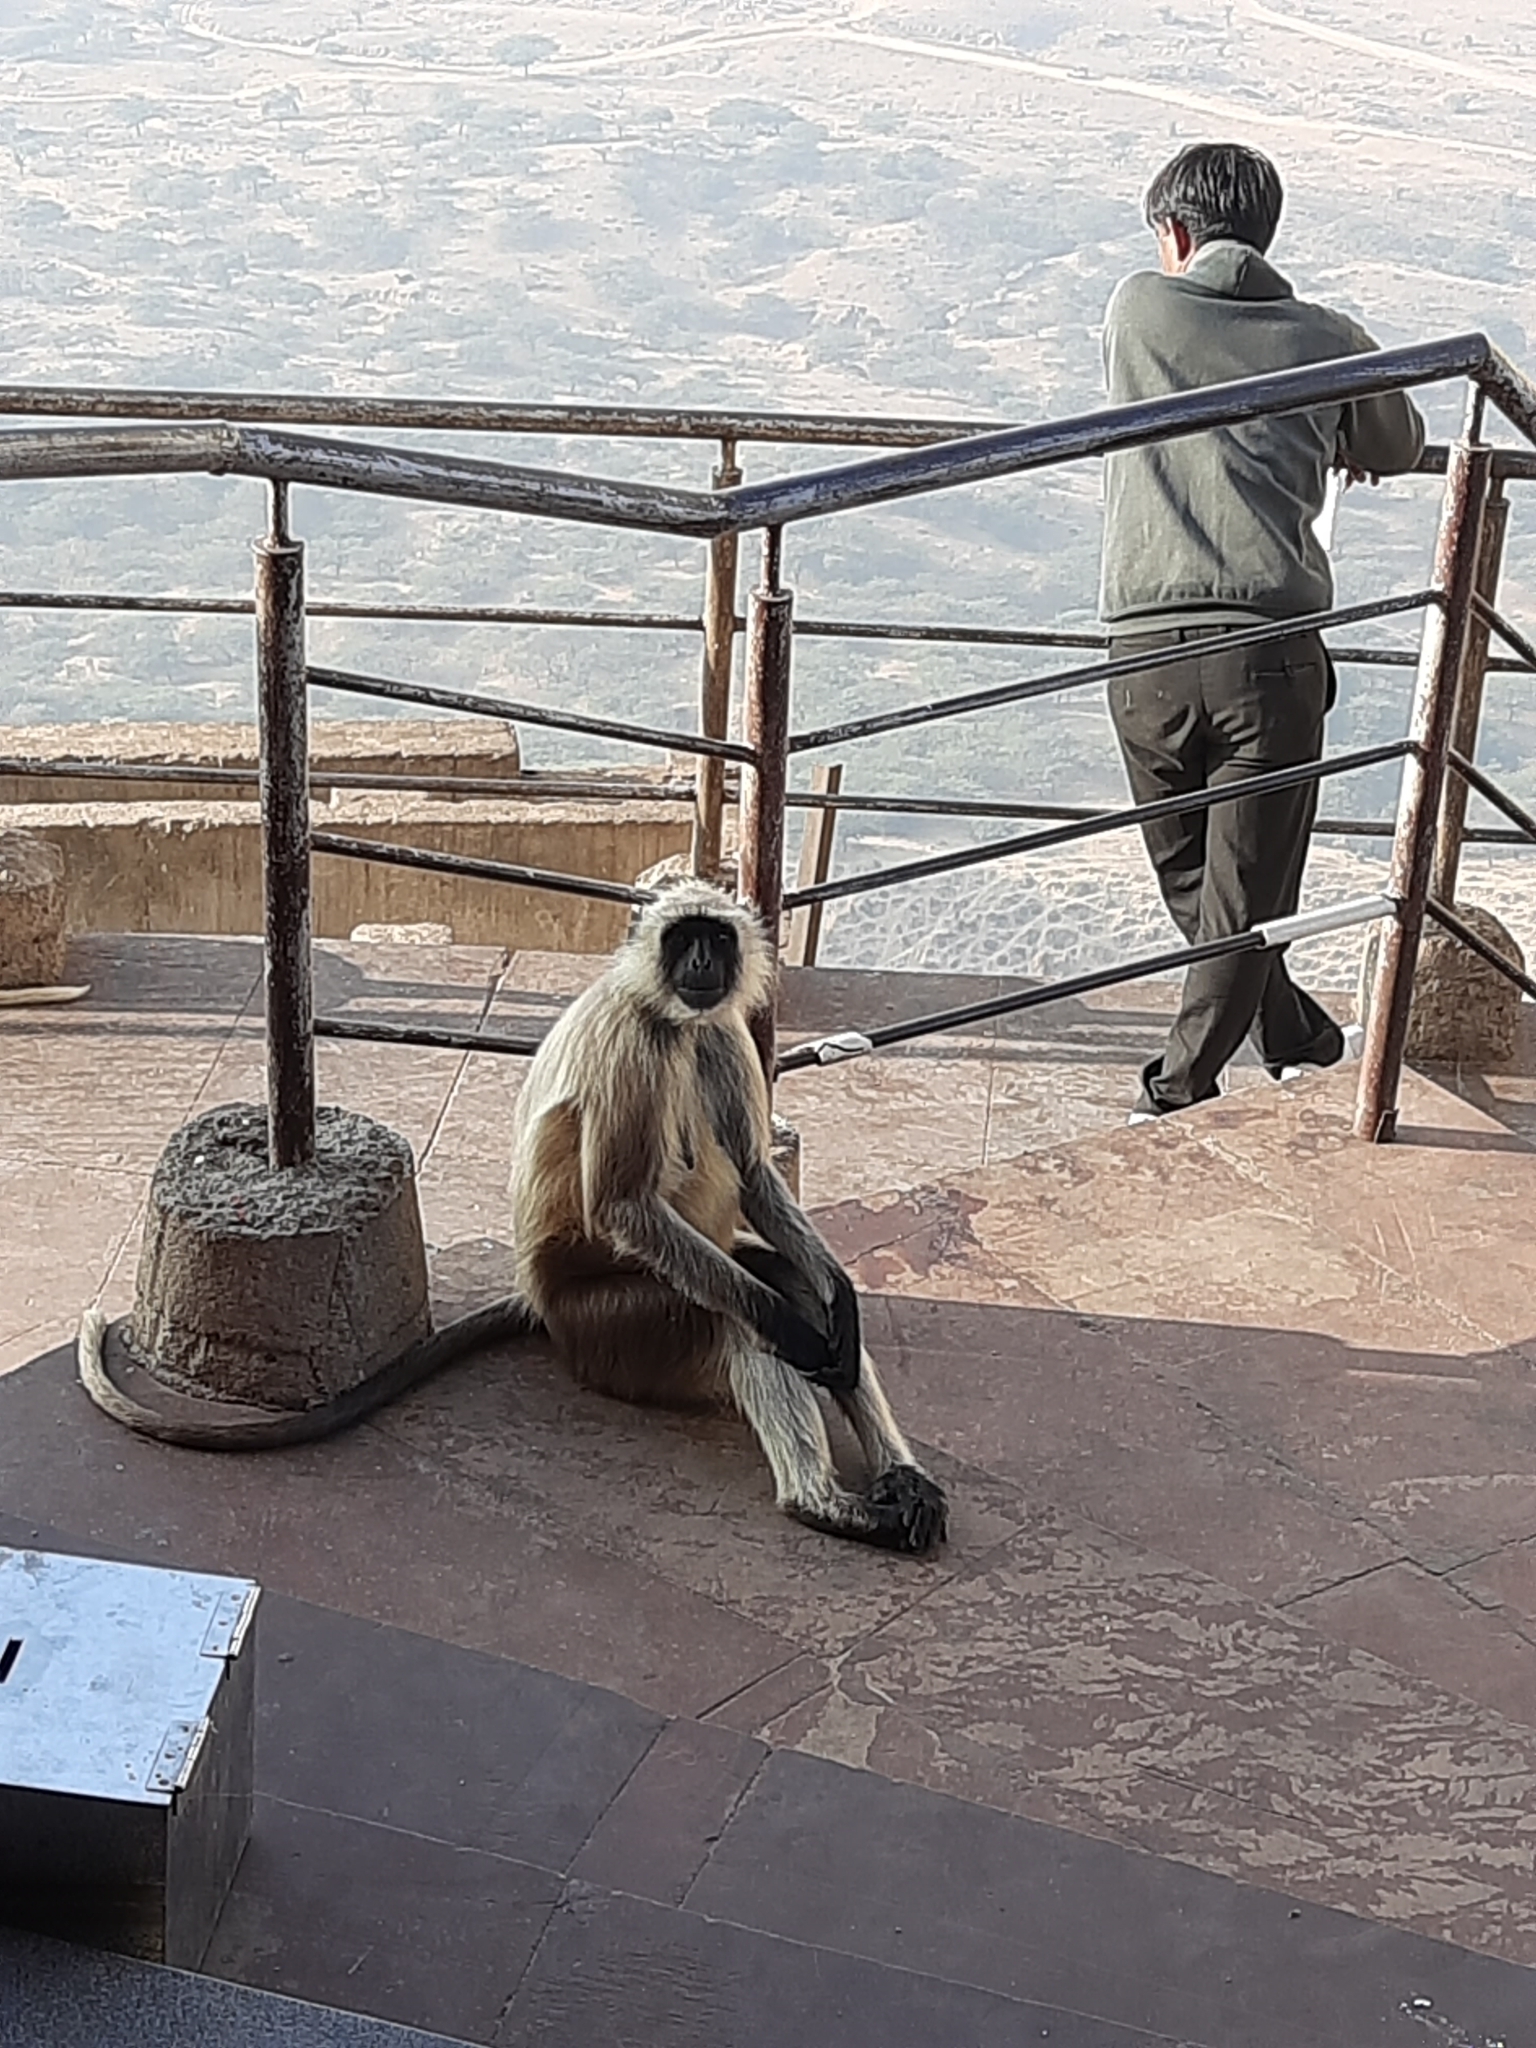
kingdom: Animalia
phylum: Chordata
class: Mammalia
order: Primates
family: Cercopithecidae
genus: Semnopithecus
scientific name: Semnopithecus entellus
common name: Northern plains gray langur
